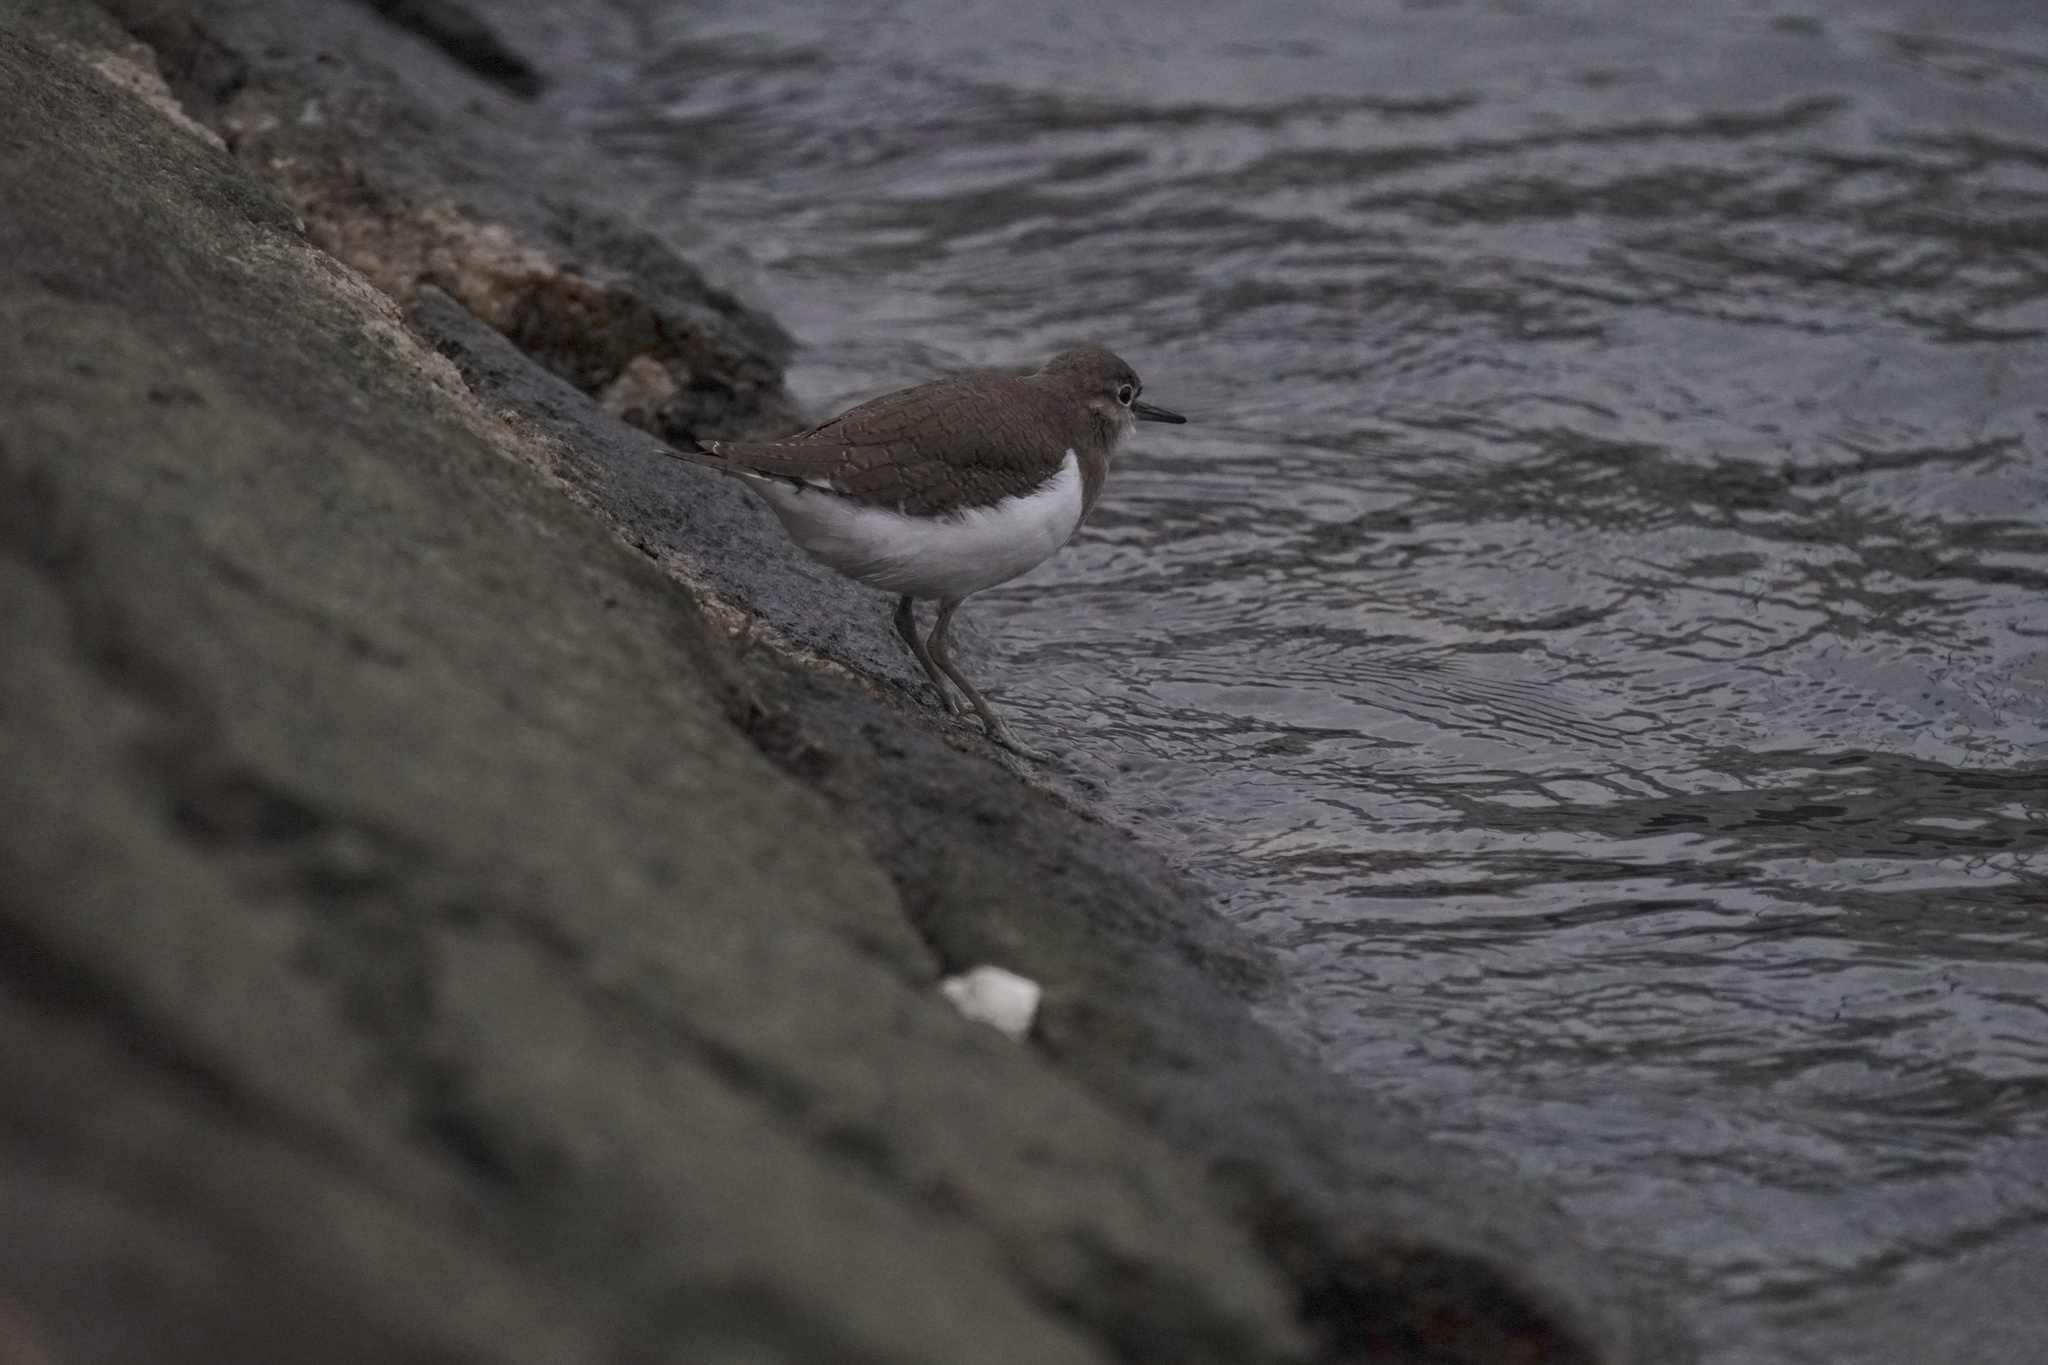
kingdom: Animalia
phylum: Chordata
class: Aves
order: Charadriiformes
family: Scolopacidae
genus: Actitis
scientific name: Actitis hypoleucos
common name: Common sandpiper
